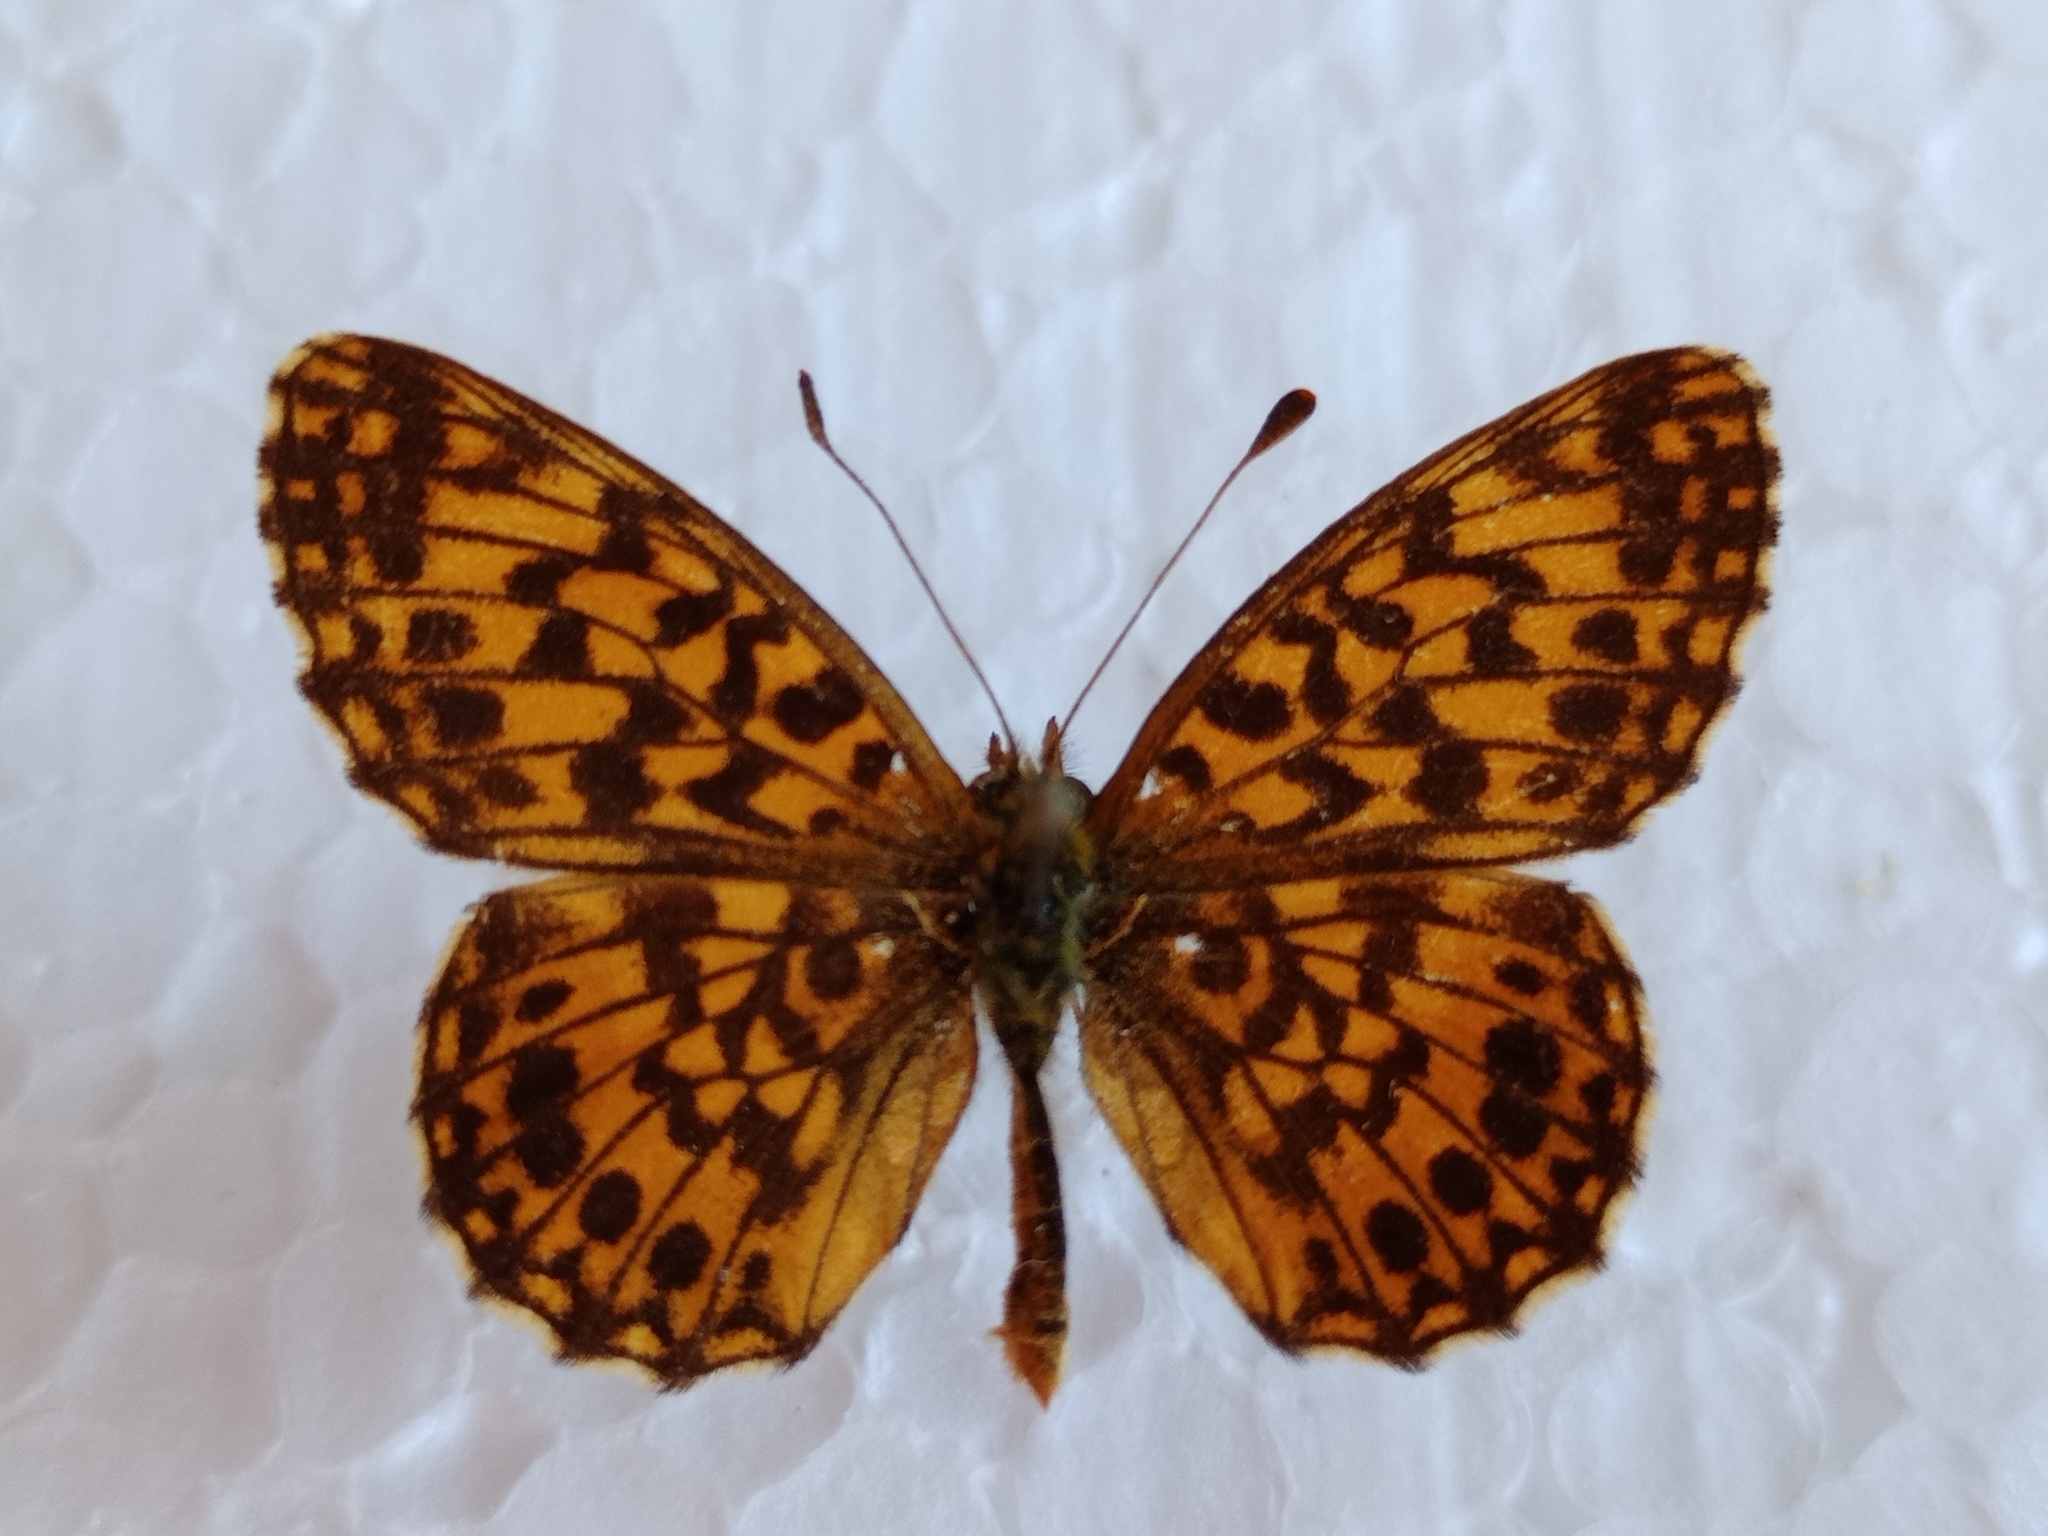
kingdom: Animalia
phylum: Arthropoda
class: Insecta
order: Lepidoptera
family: Nymphalidae
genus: Boloria
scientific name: Boloria dia
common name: Weaver's fritillary
